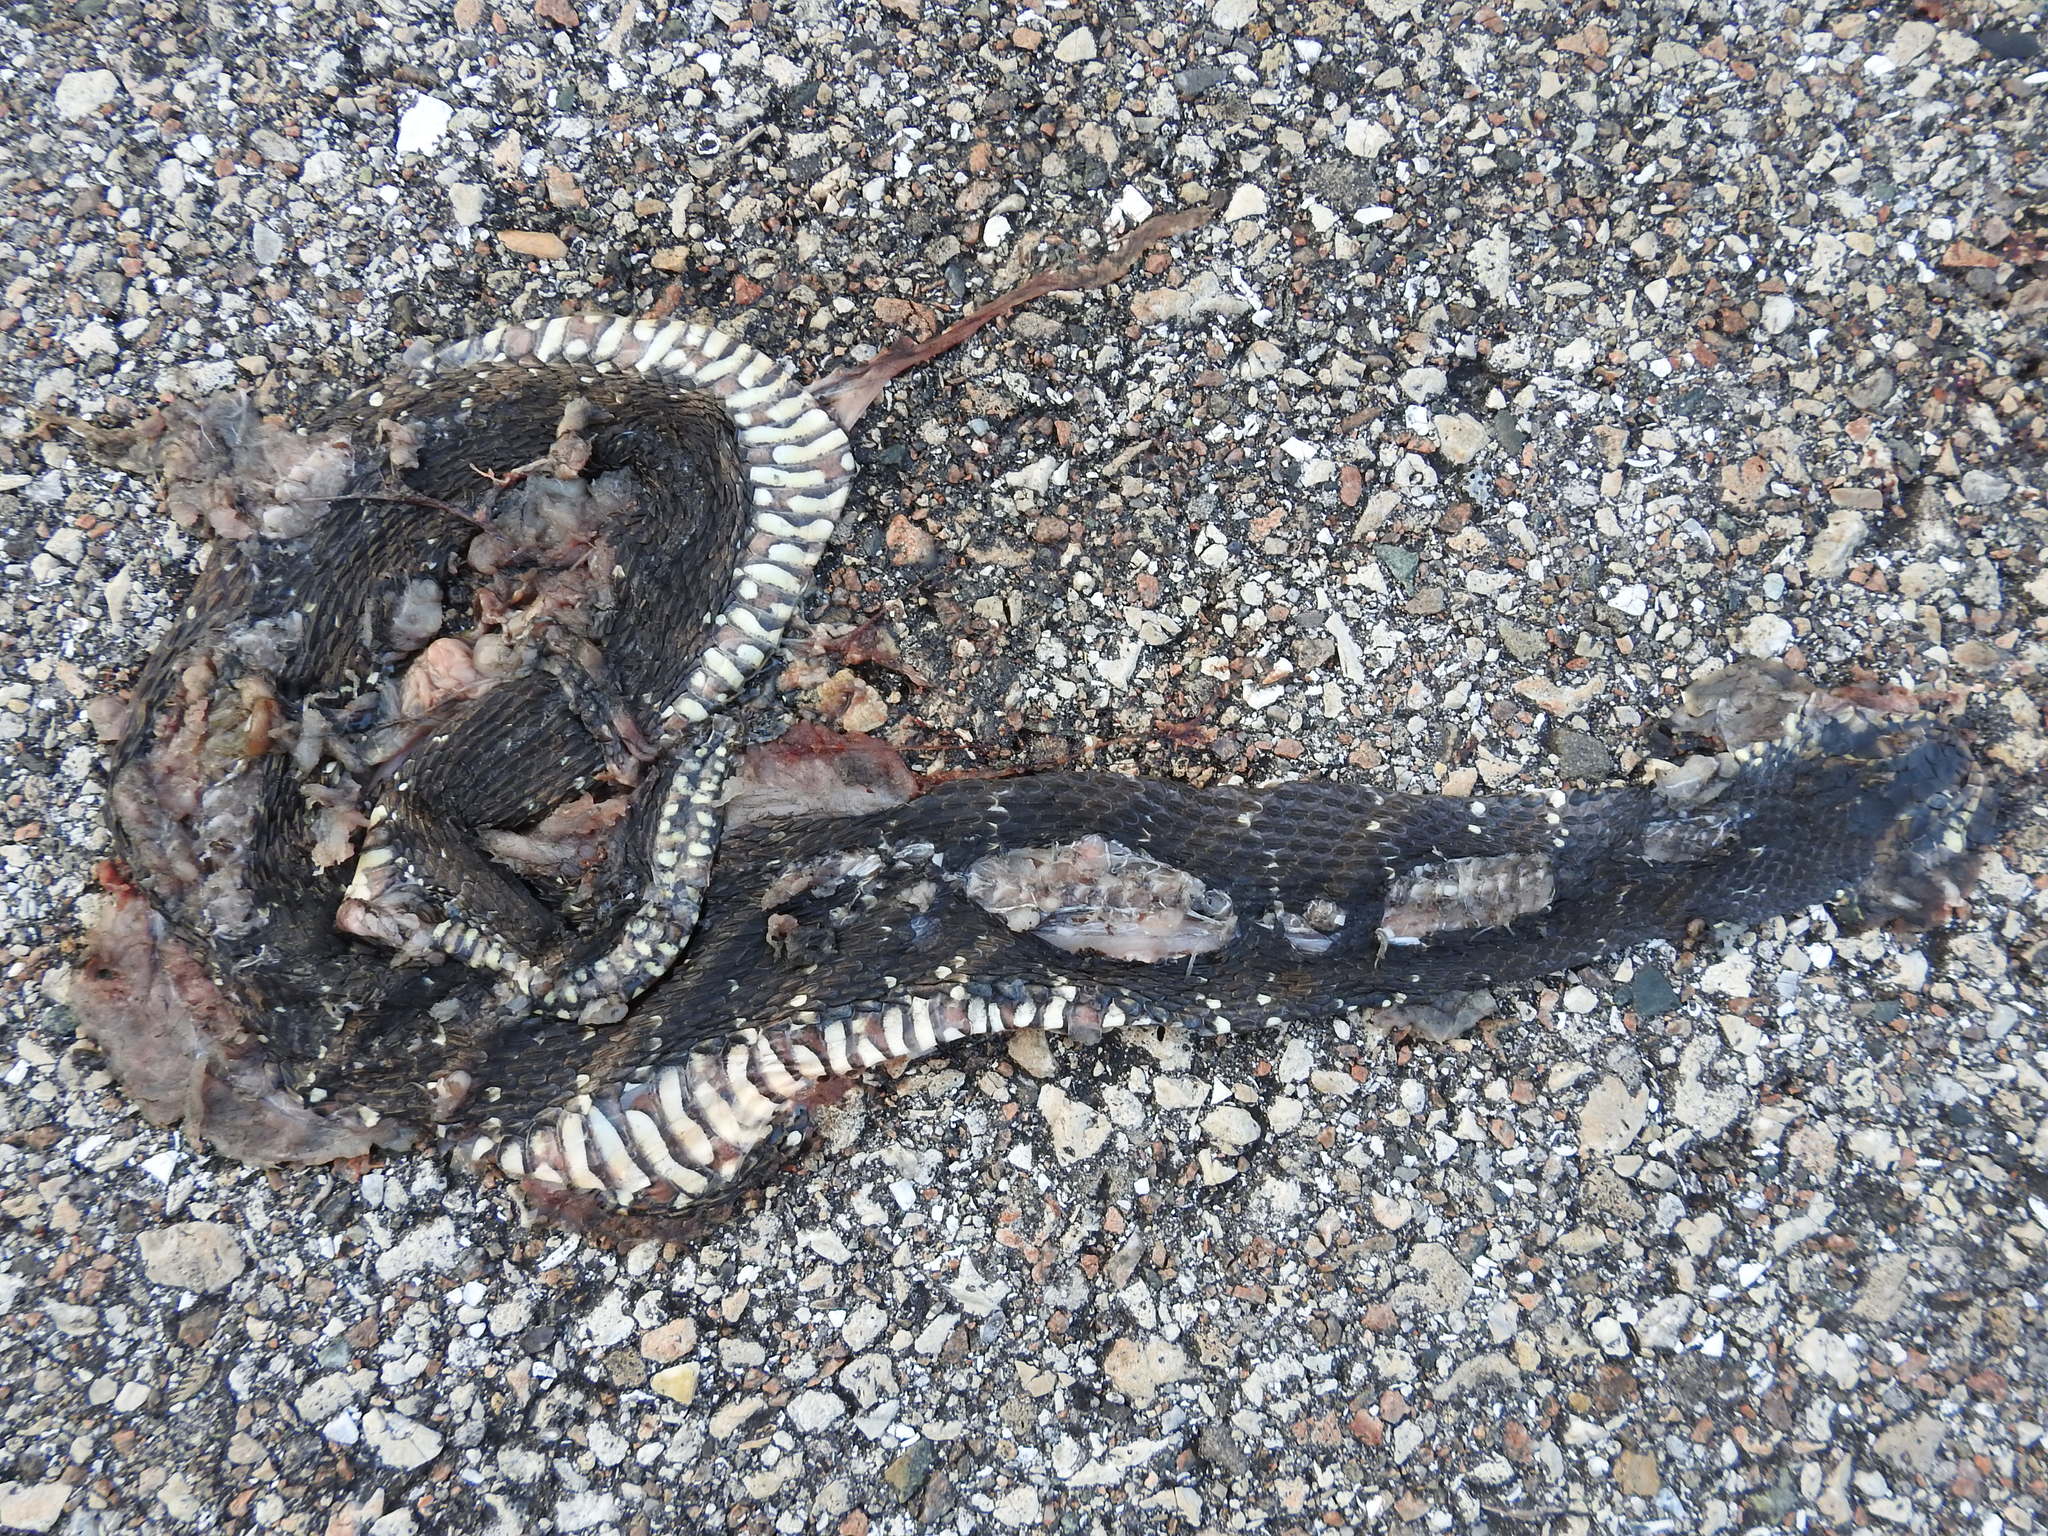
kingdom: Animalia
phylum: Chordata
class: Squamata
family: Colubridae
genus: Nerodia
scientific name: Nerodia fasciata
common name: Southern water snake
